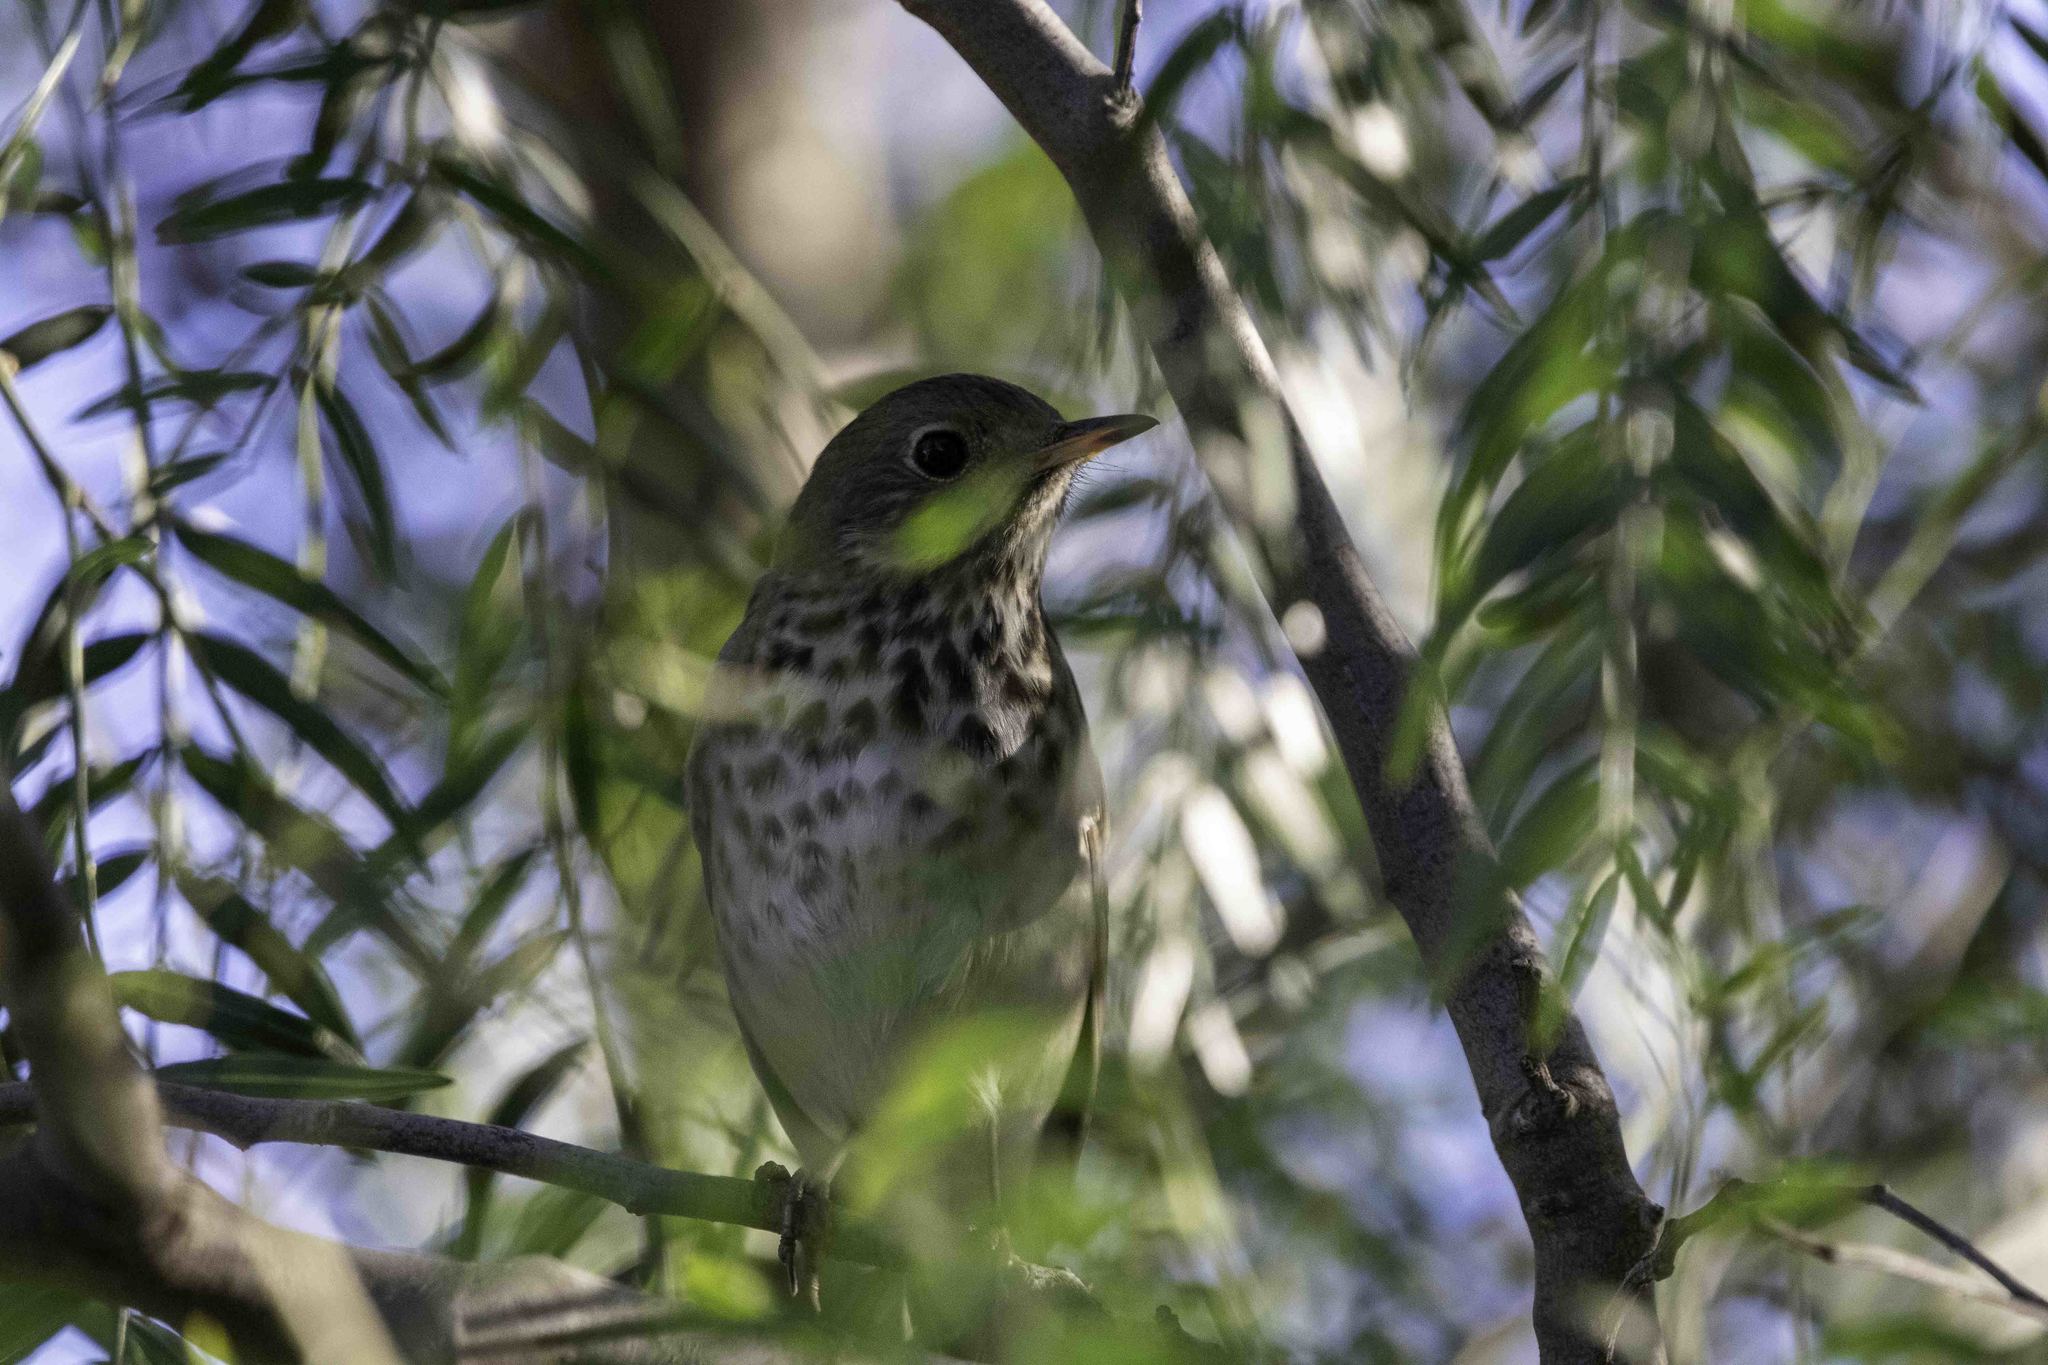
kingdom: Animalia
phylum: Chordata
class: Aves
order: Passeriformes
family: Turdidae
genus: Catharus
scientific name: Catharus guttatus
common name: Hermit thrush
